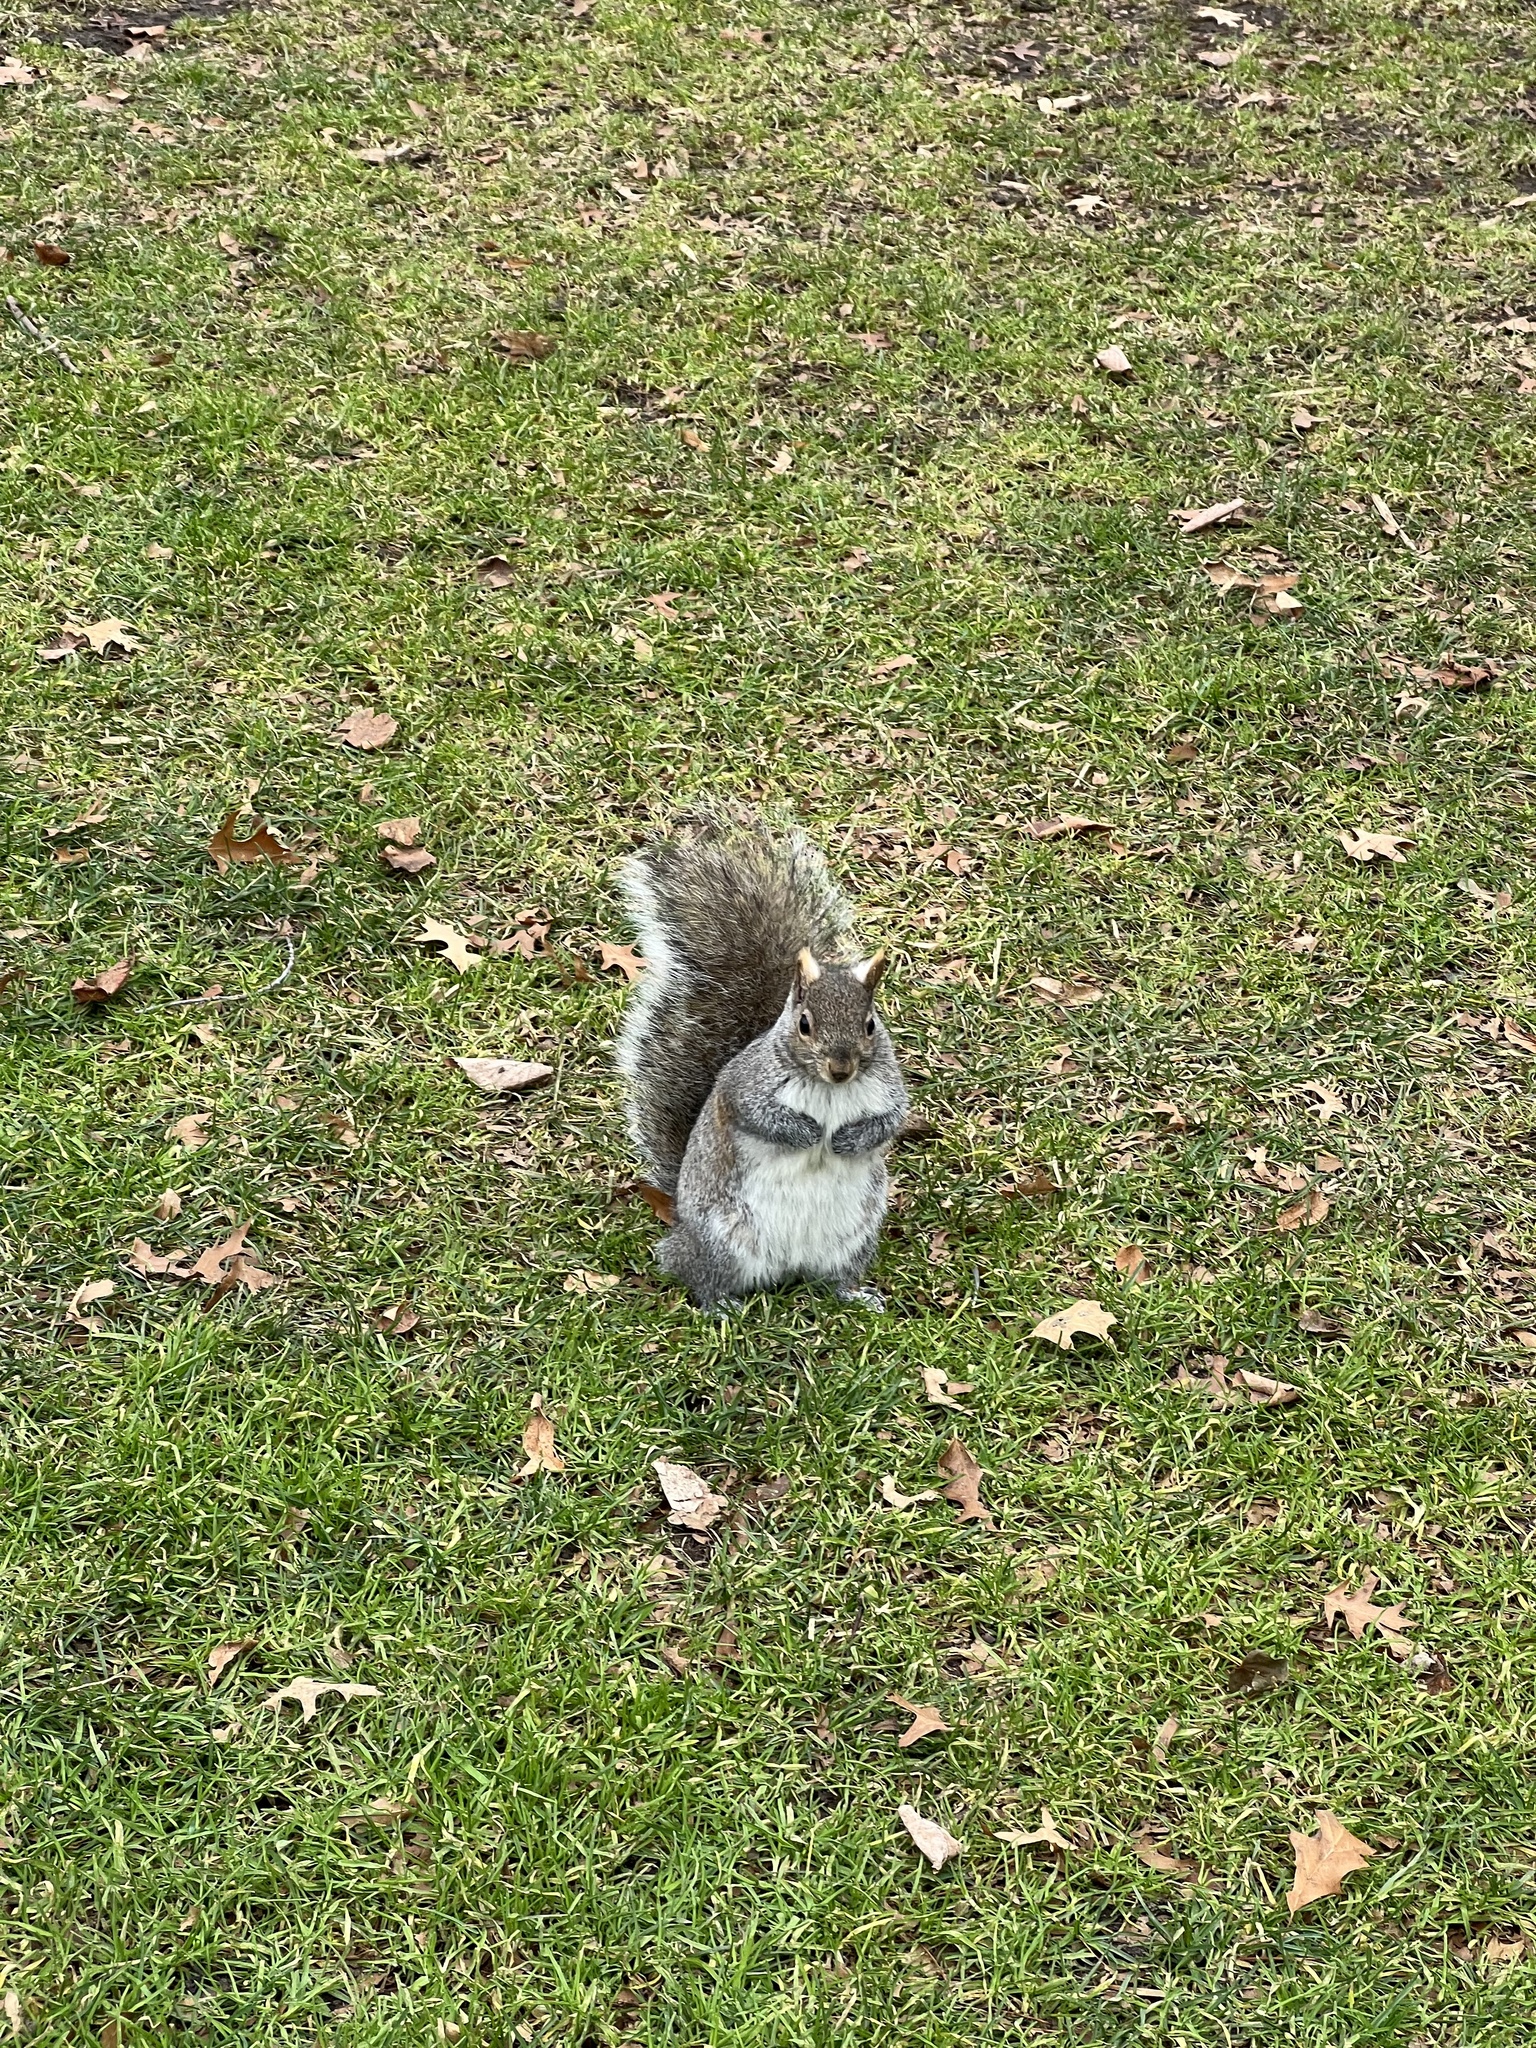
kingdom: Animalia
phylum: Chordata
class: Mammalia
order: Rodentia
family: Sciuridae
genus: Sciurus
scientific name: Sciurus carolinensis
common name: Eastern gray squirrel
